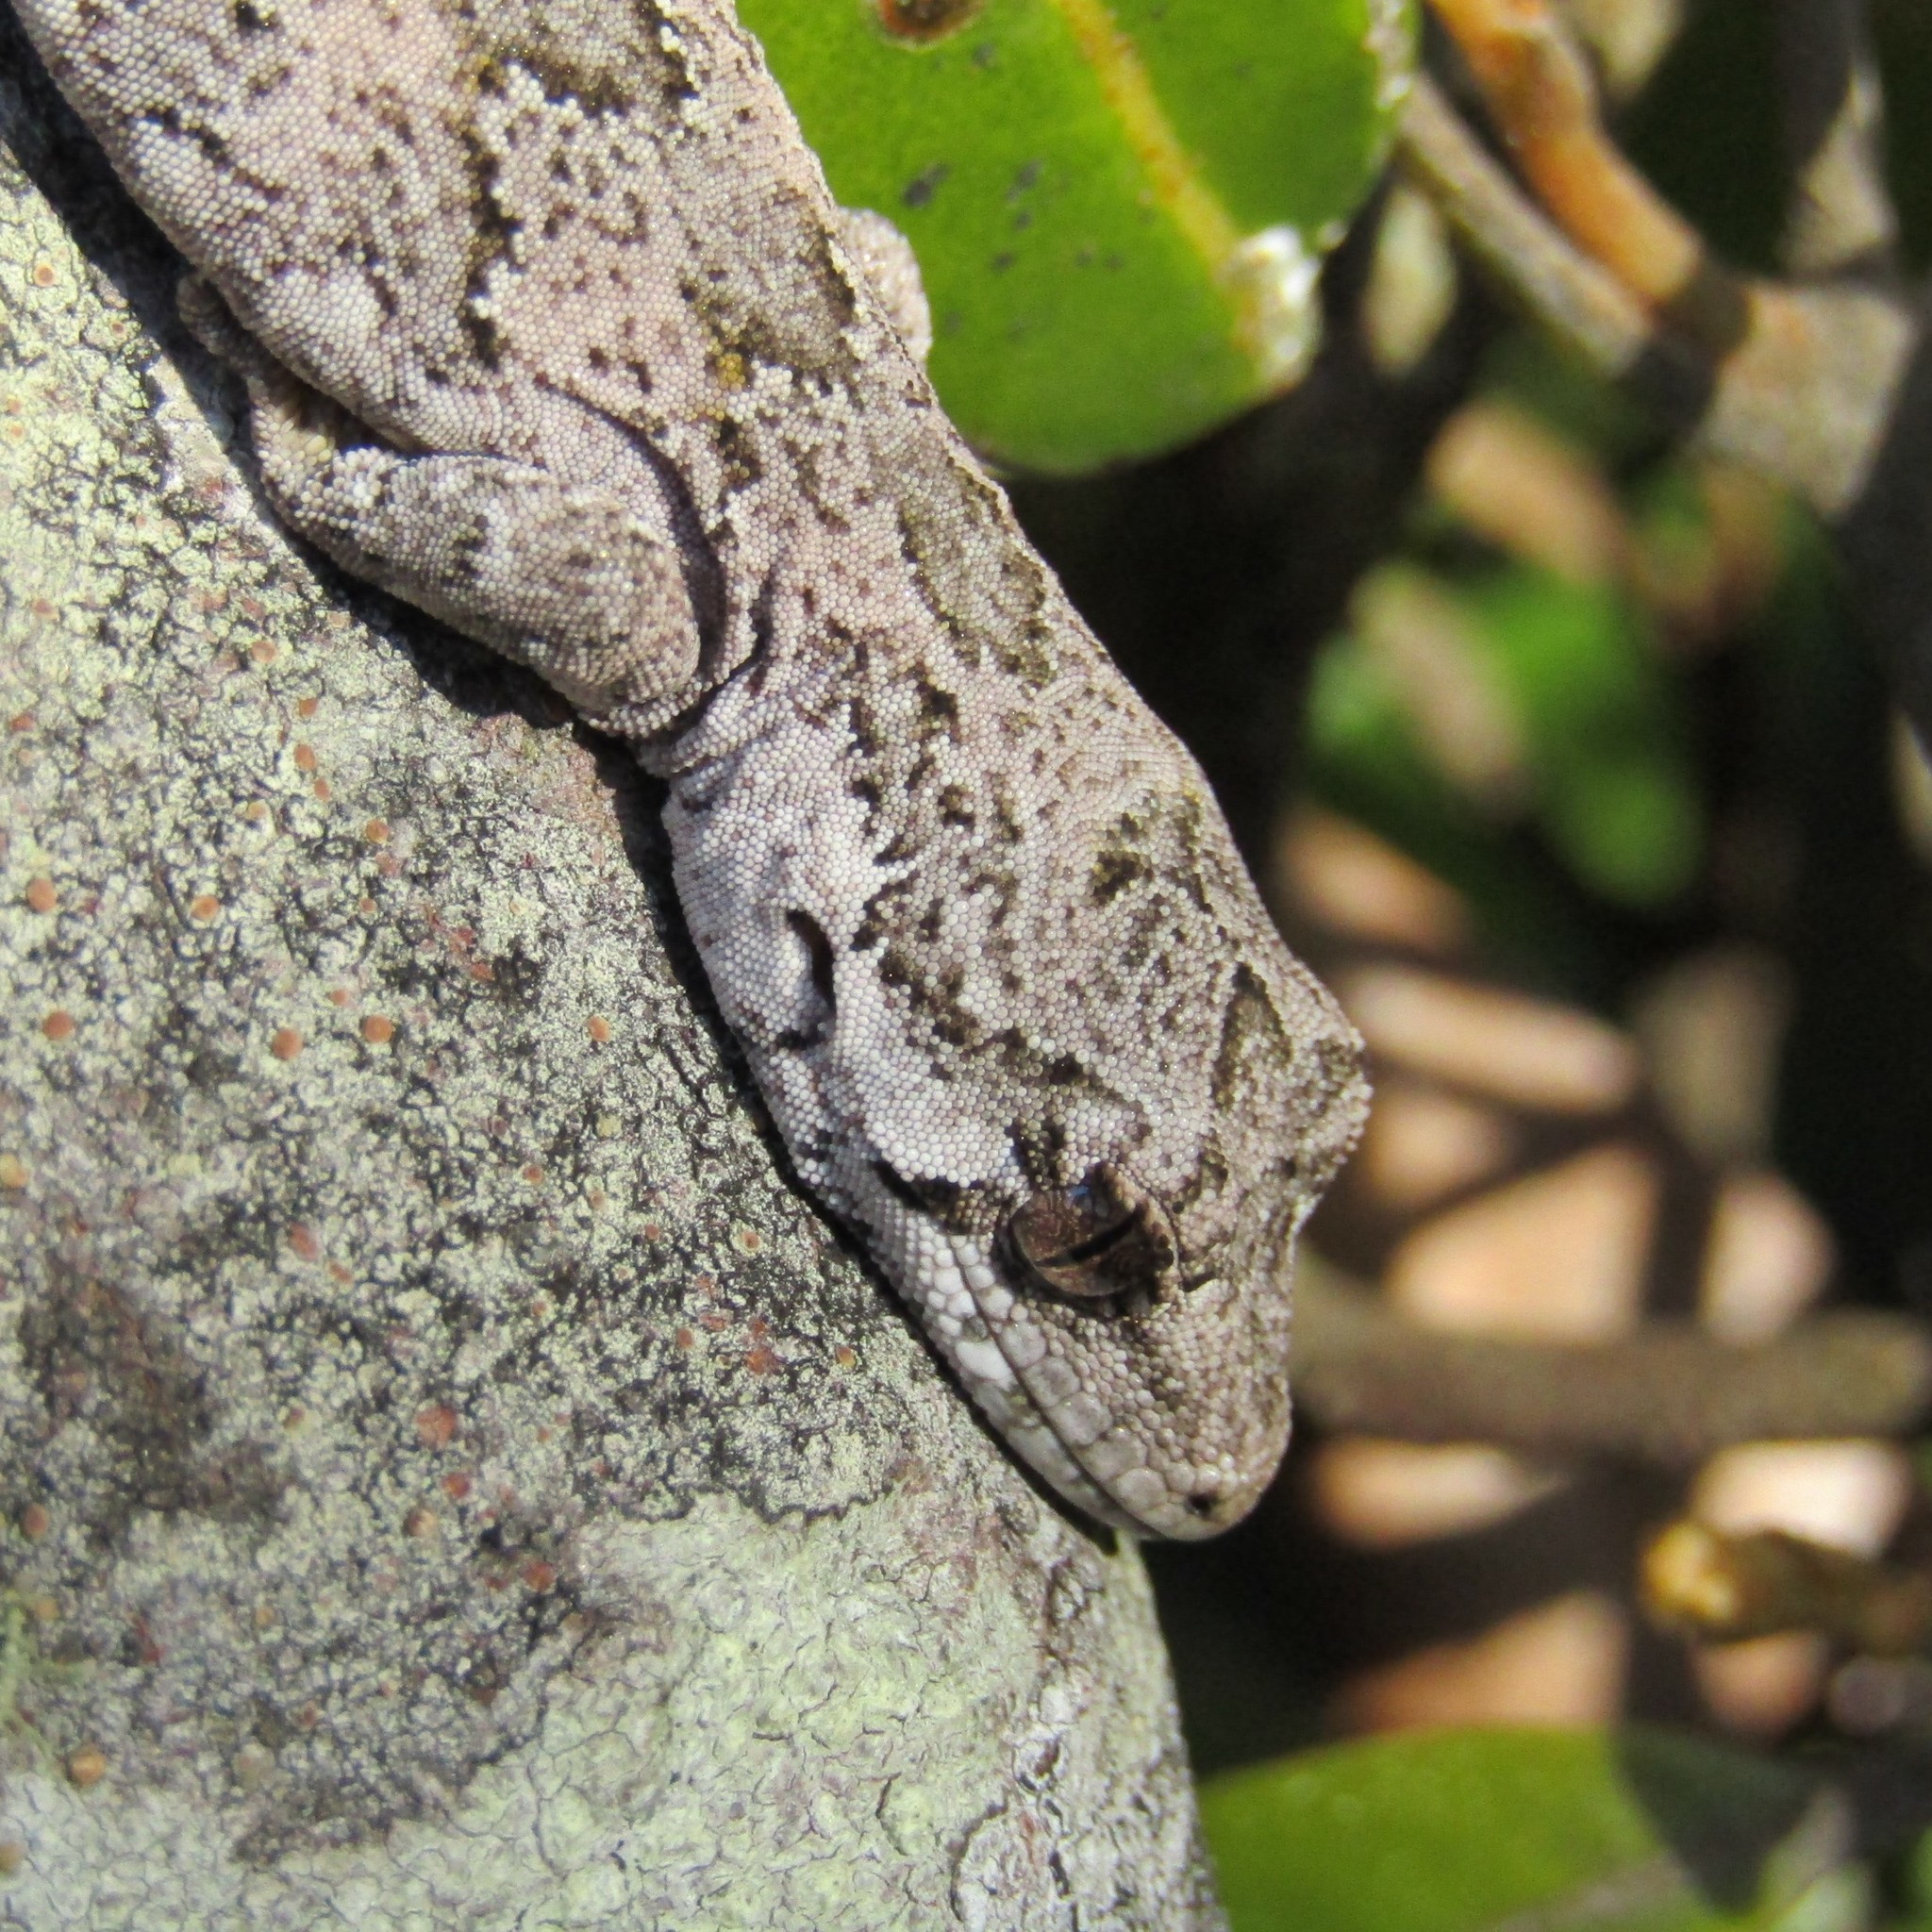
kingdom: Animalia
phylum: Chordata
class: Squamata
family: Diplodactylidae
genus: Mokopirirakau
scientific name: Mokopirirakau
